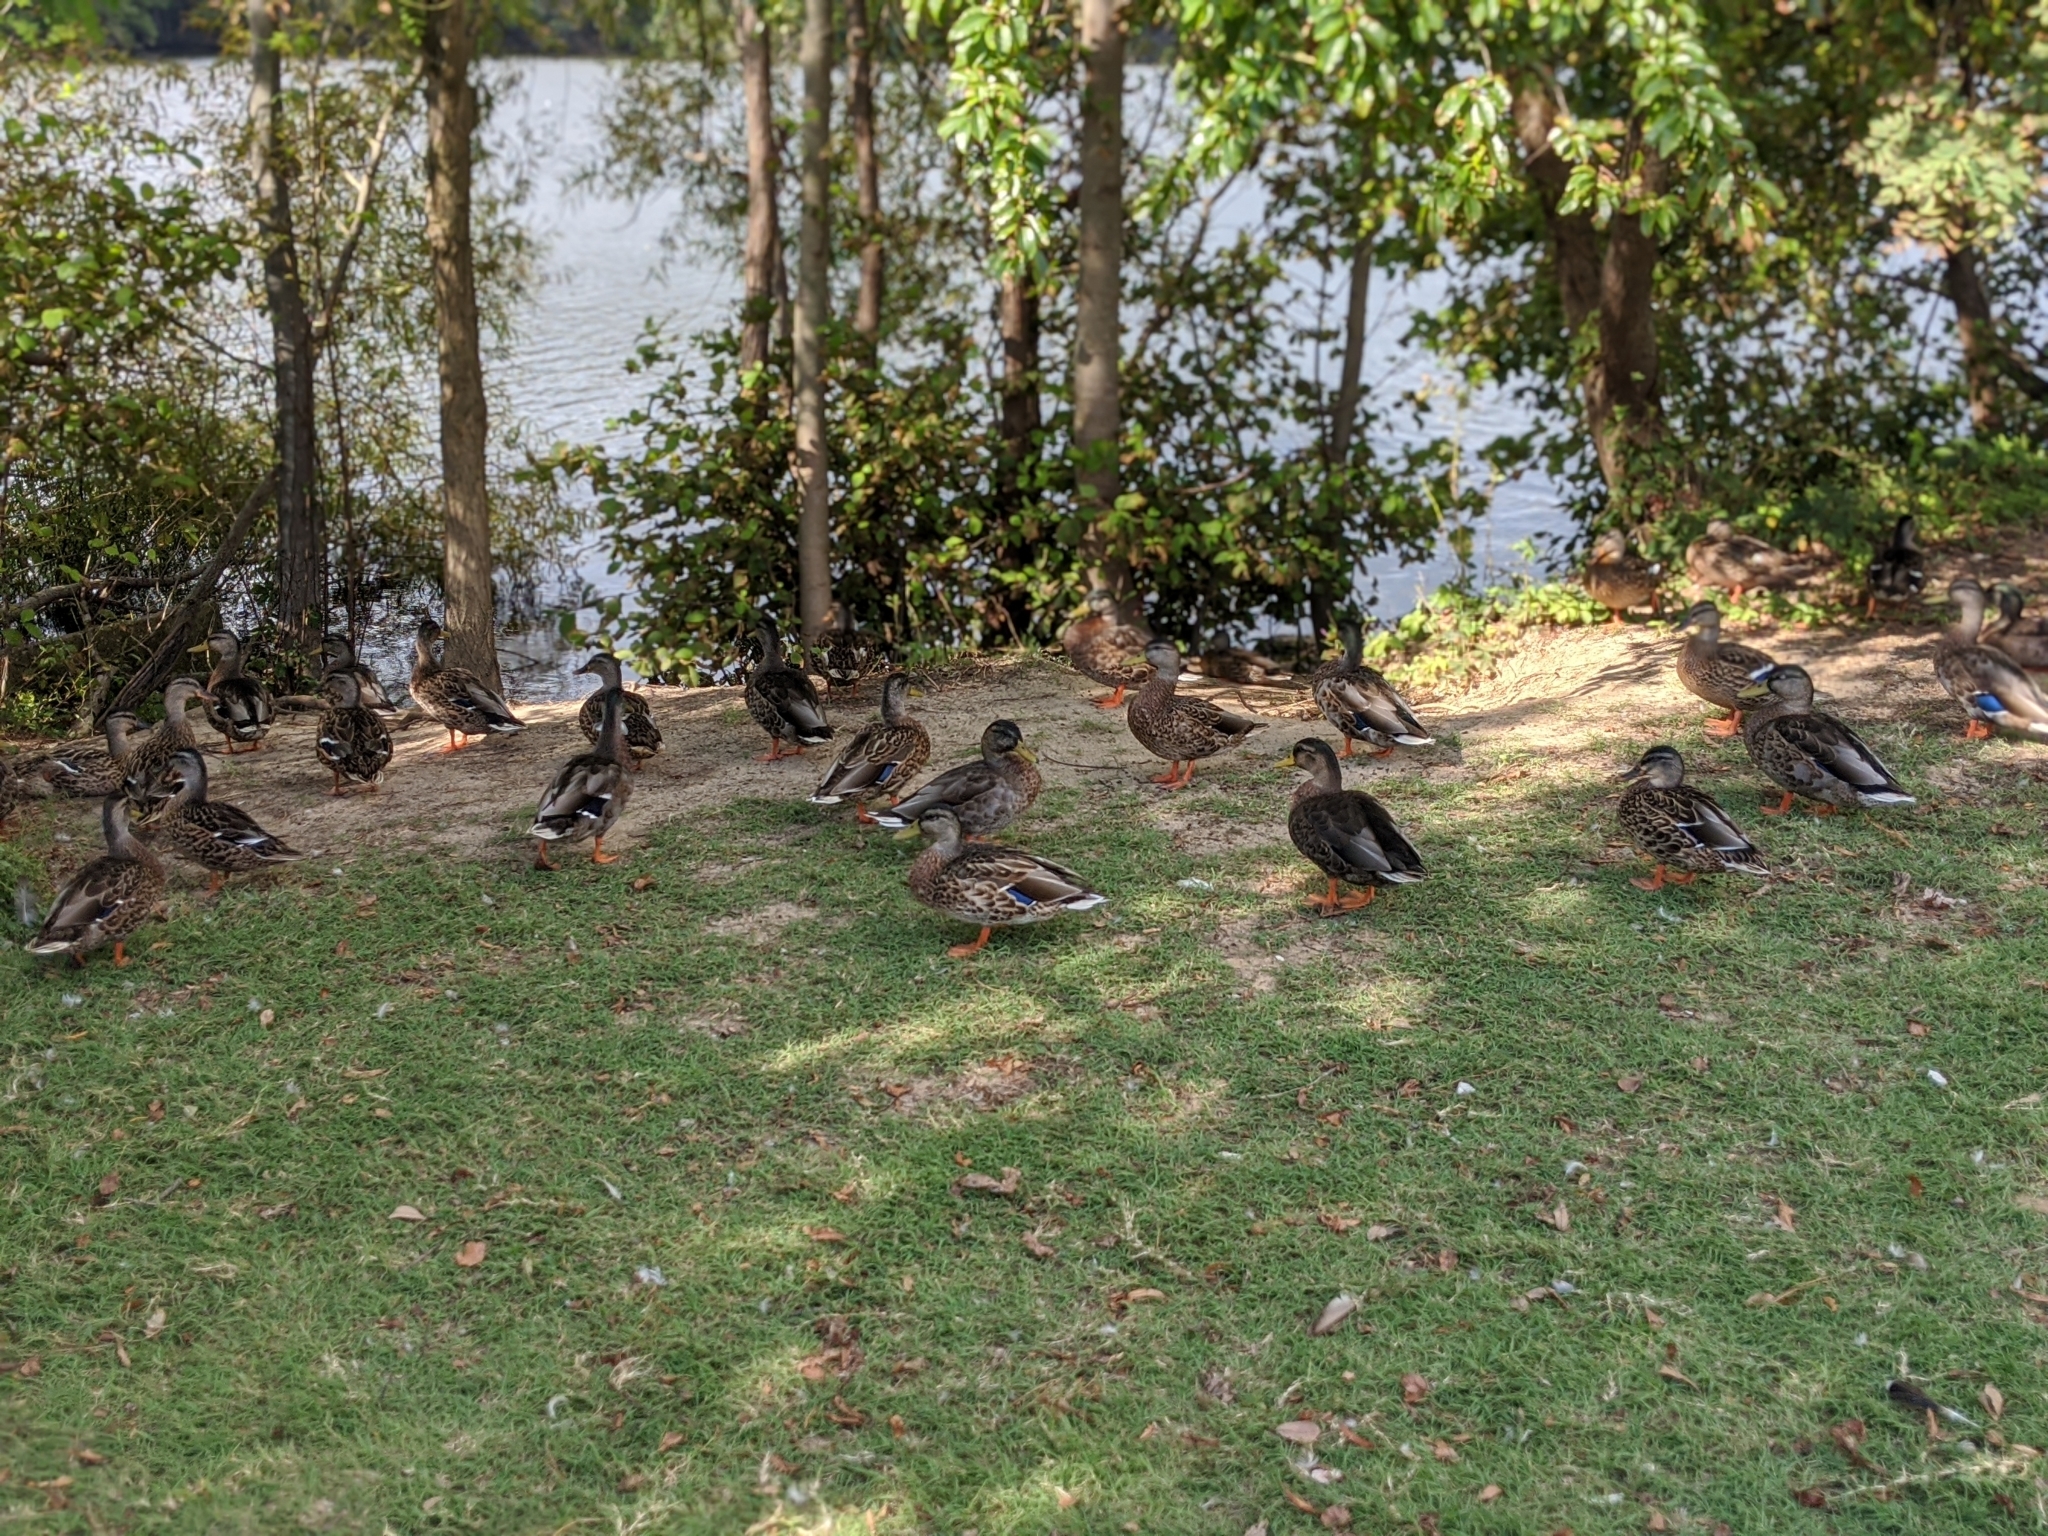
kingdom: Animalia
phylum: Chordata
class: Aves
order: Anseriformes
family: Anatidae
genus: Anas
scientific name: Anas platyrhynchos
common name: Mallard
